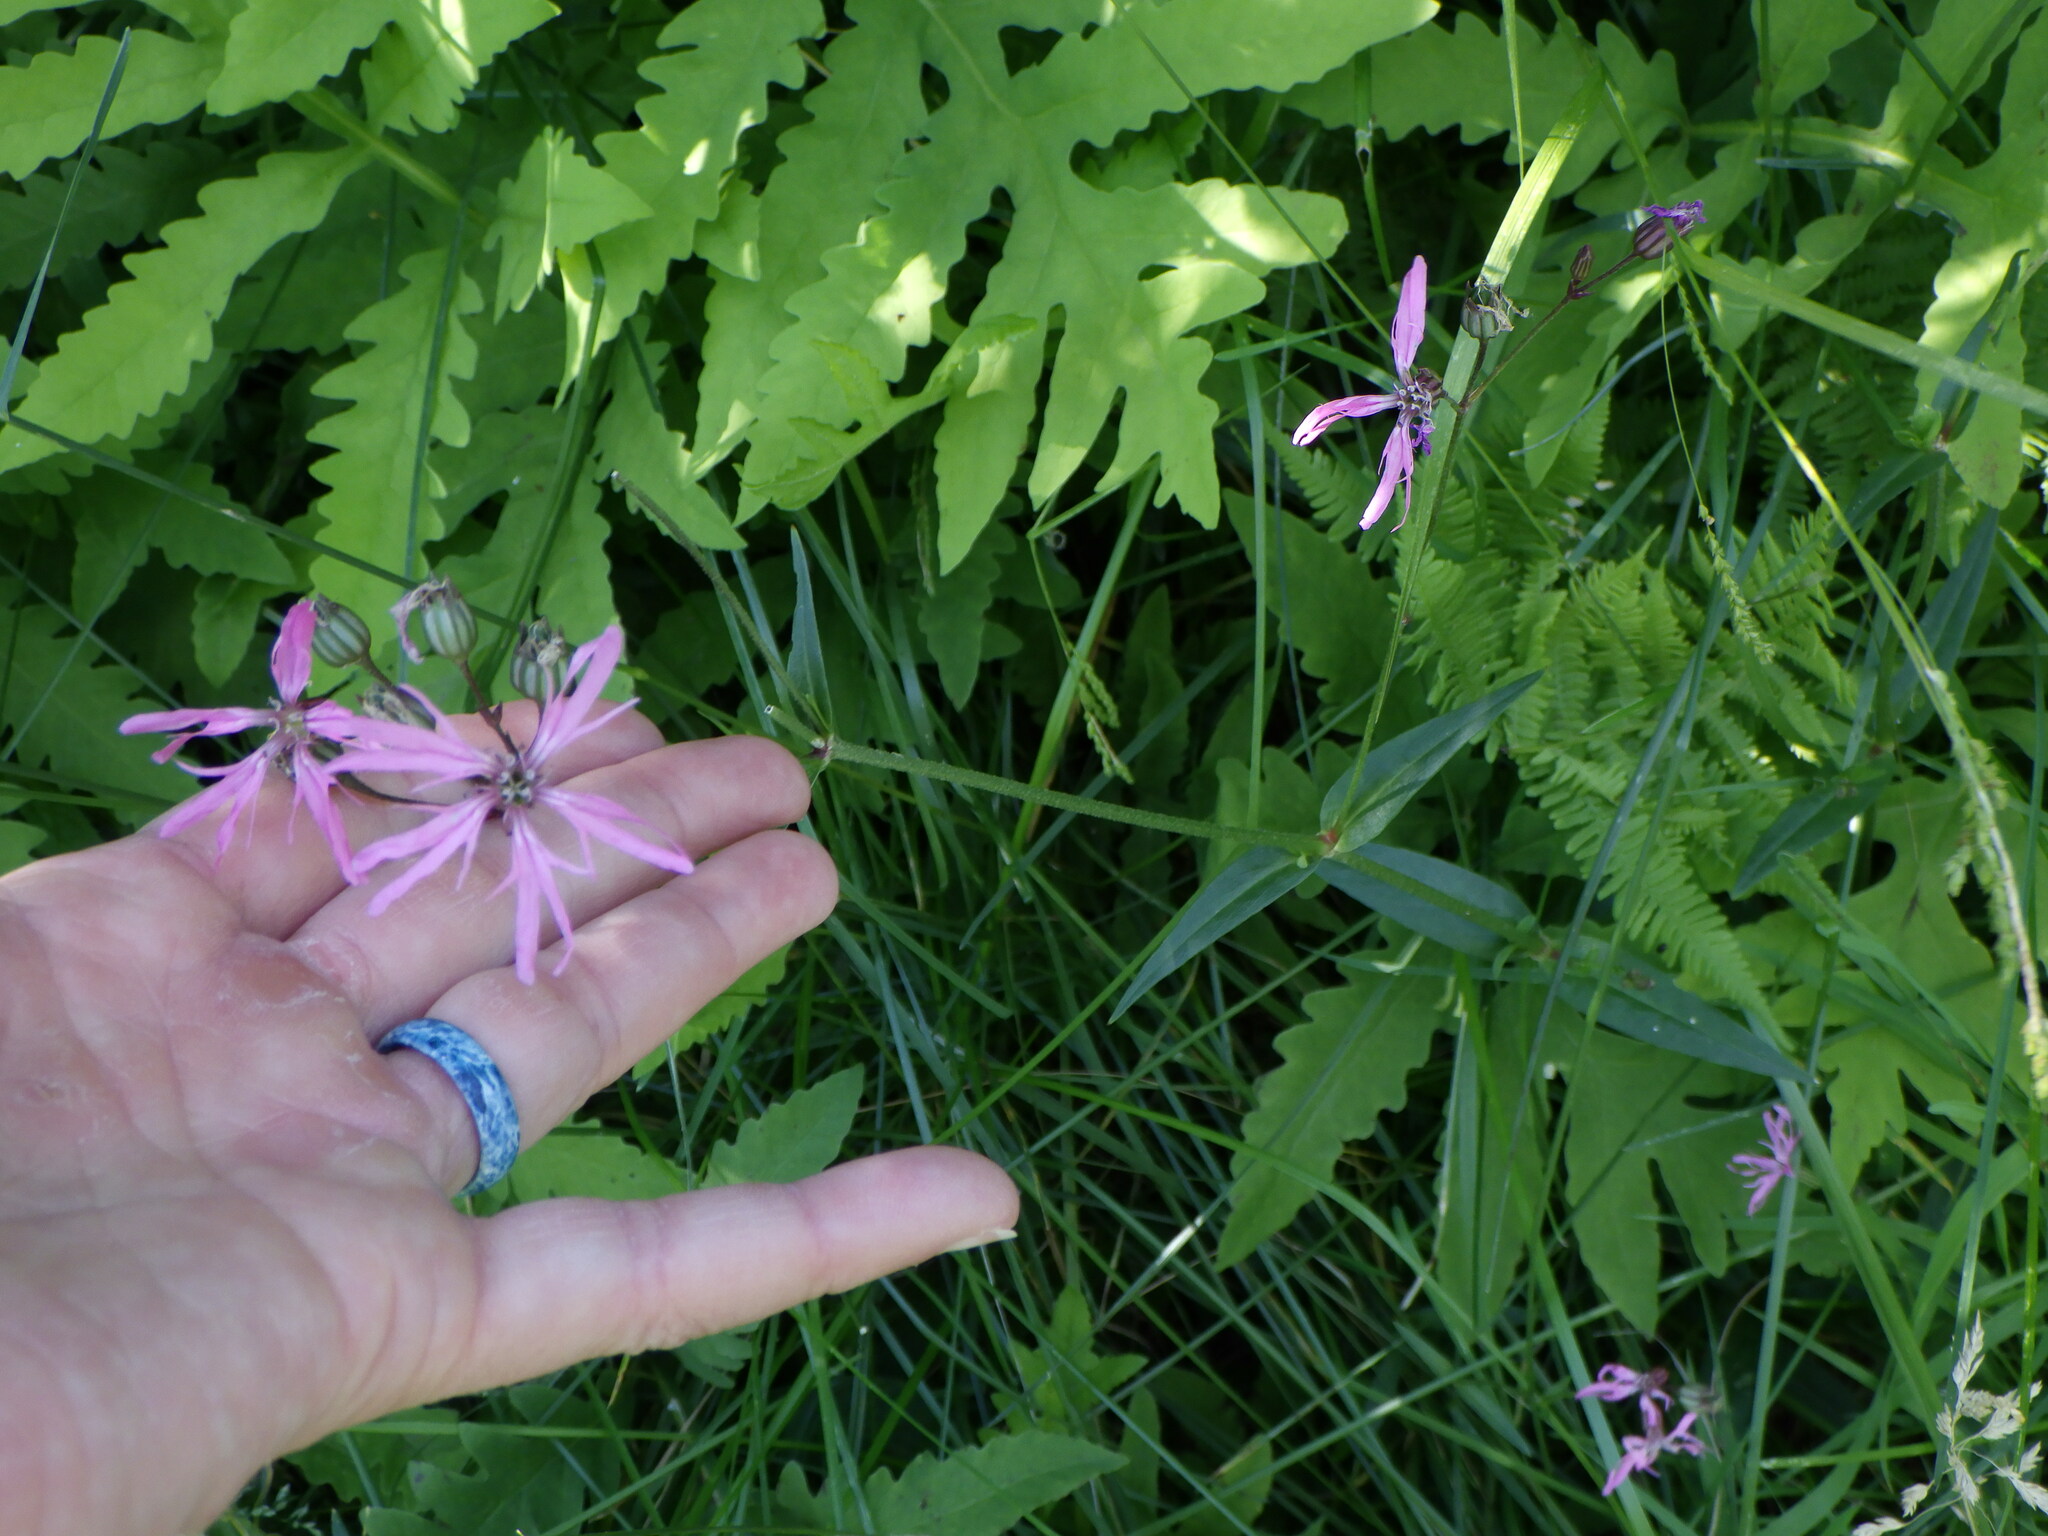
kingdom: Plantae
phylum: Tracheophyta
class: Magnoliopsida
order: Caryophyllales
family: Caryophyllaceae
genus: Silene
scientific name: Silene flos-cuculi
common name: Ragged-robin
